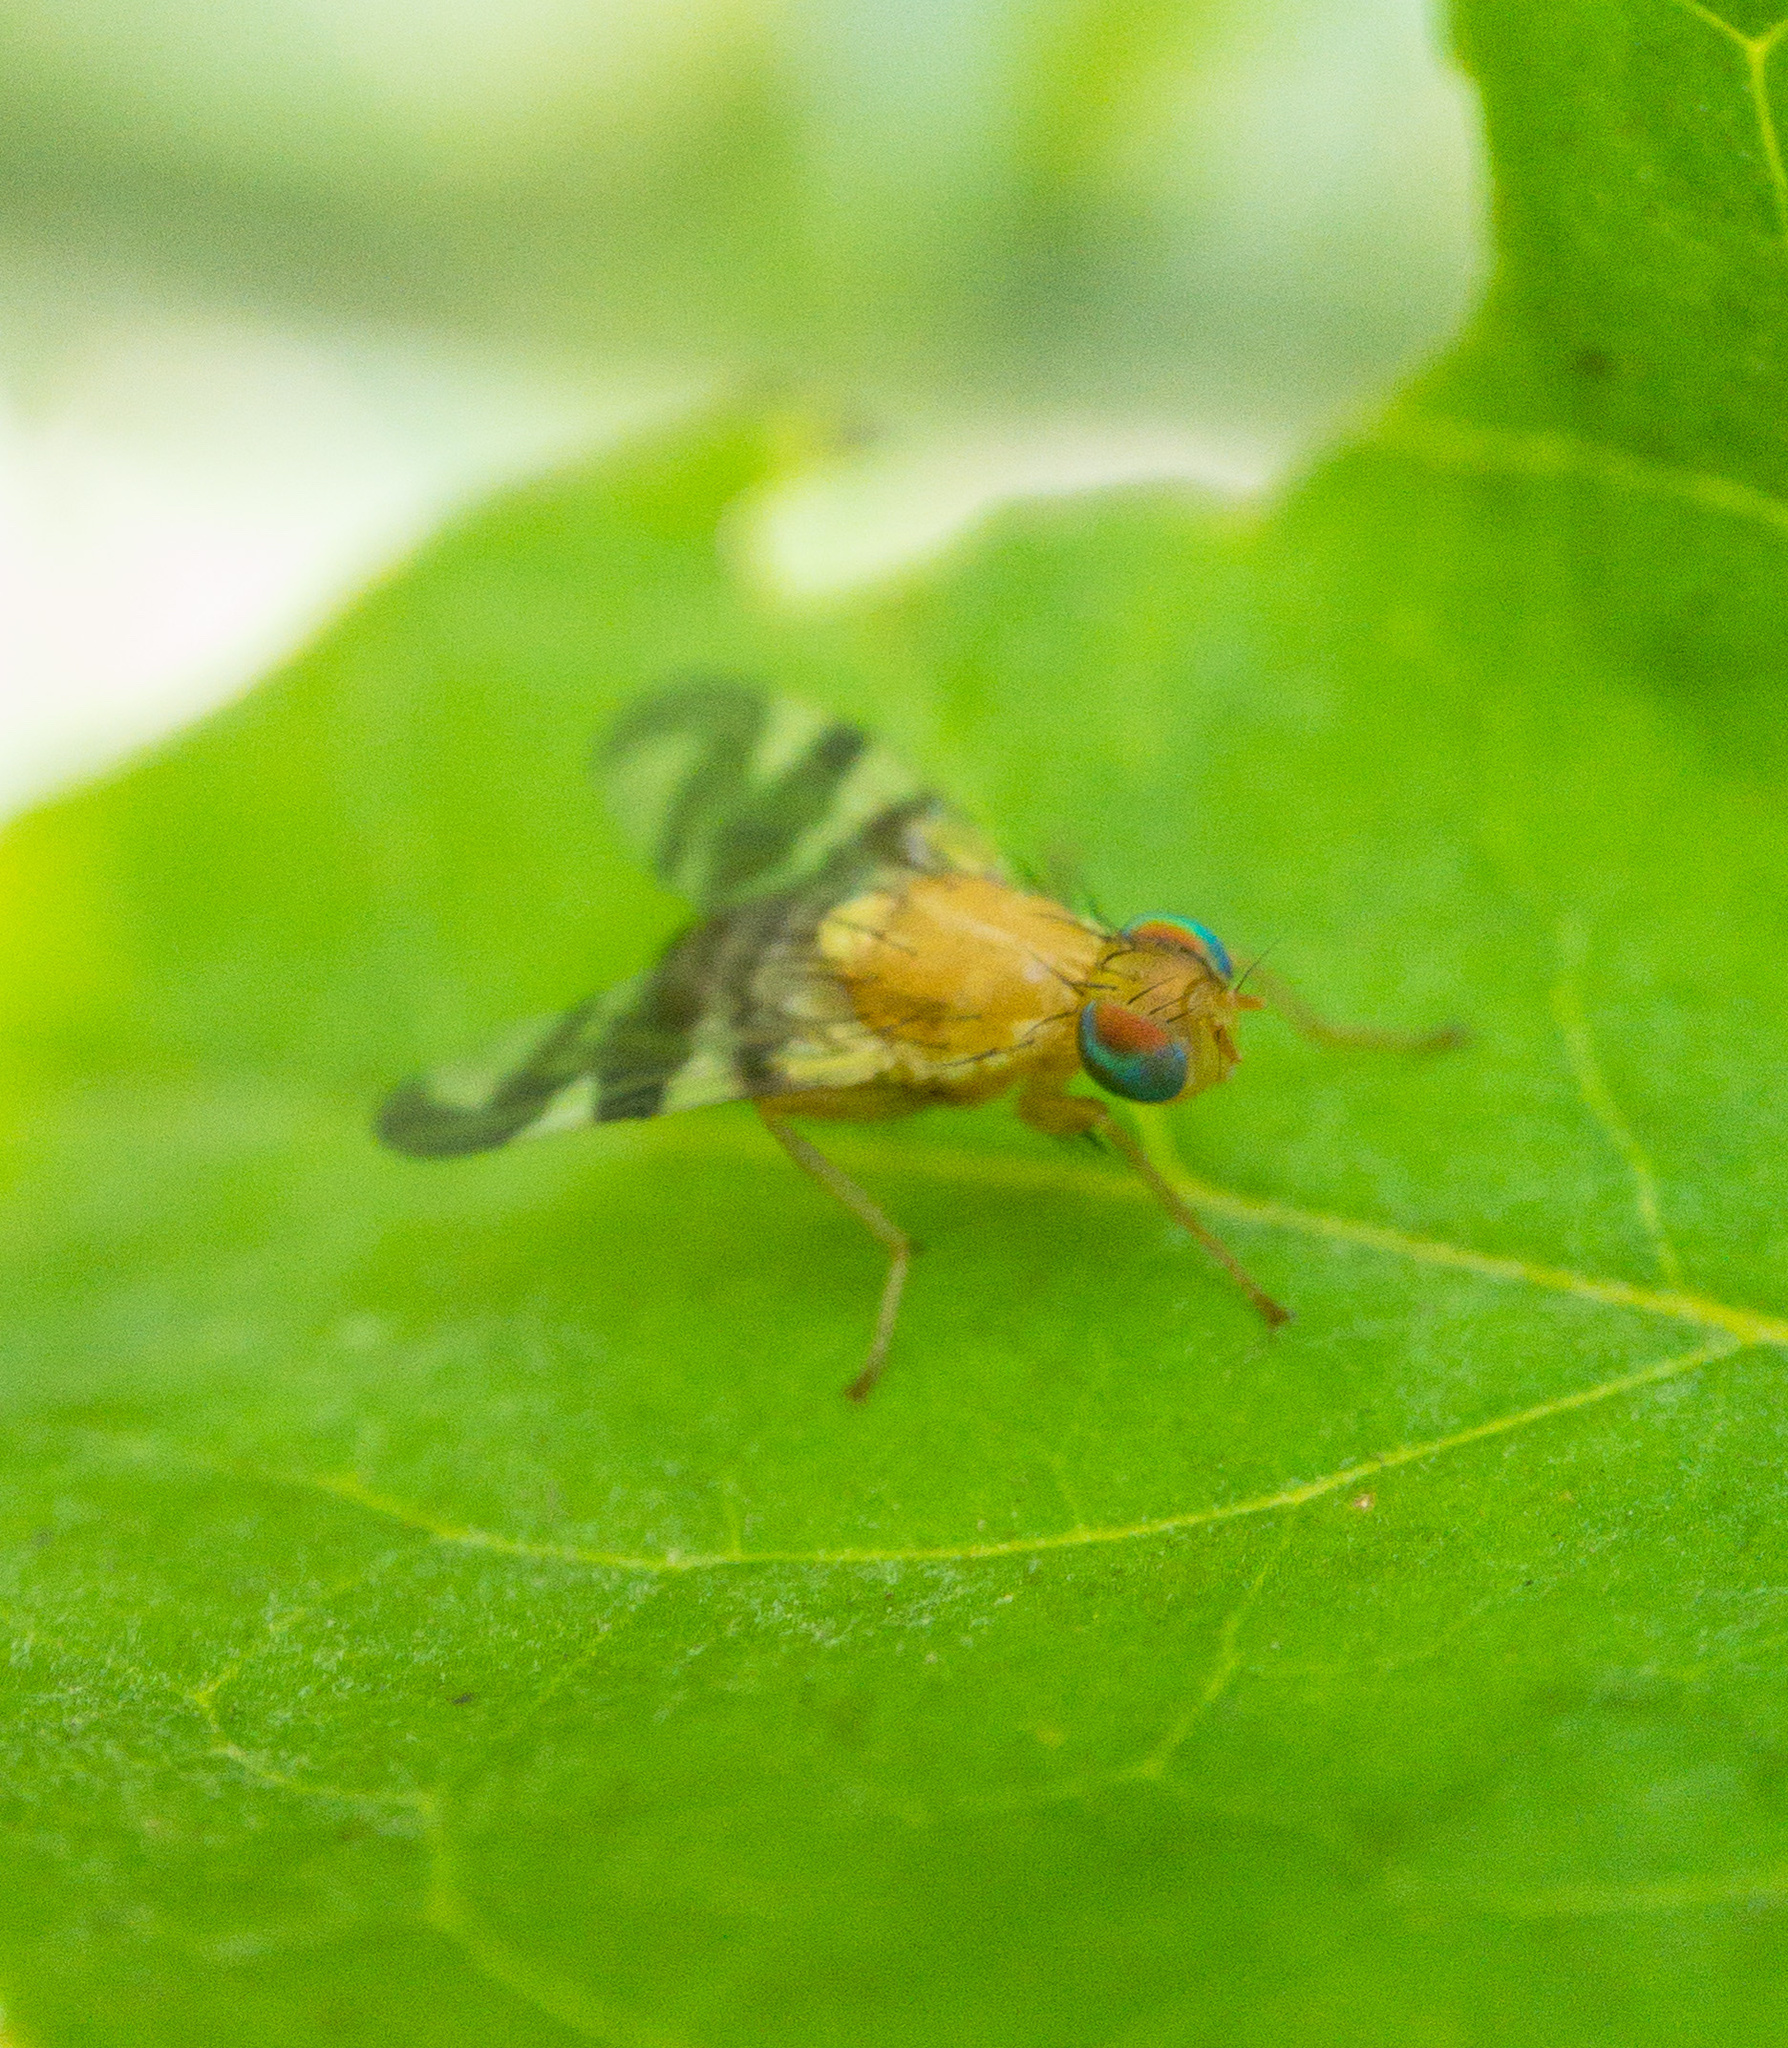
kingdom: Animalia
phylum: Arthropoda
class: Insecta
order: Diptera
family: Tephritidae
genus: Rhagoletis
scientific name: Rhagoletis suavis
